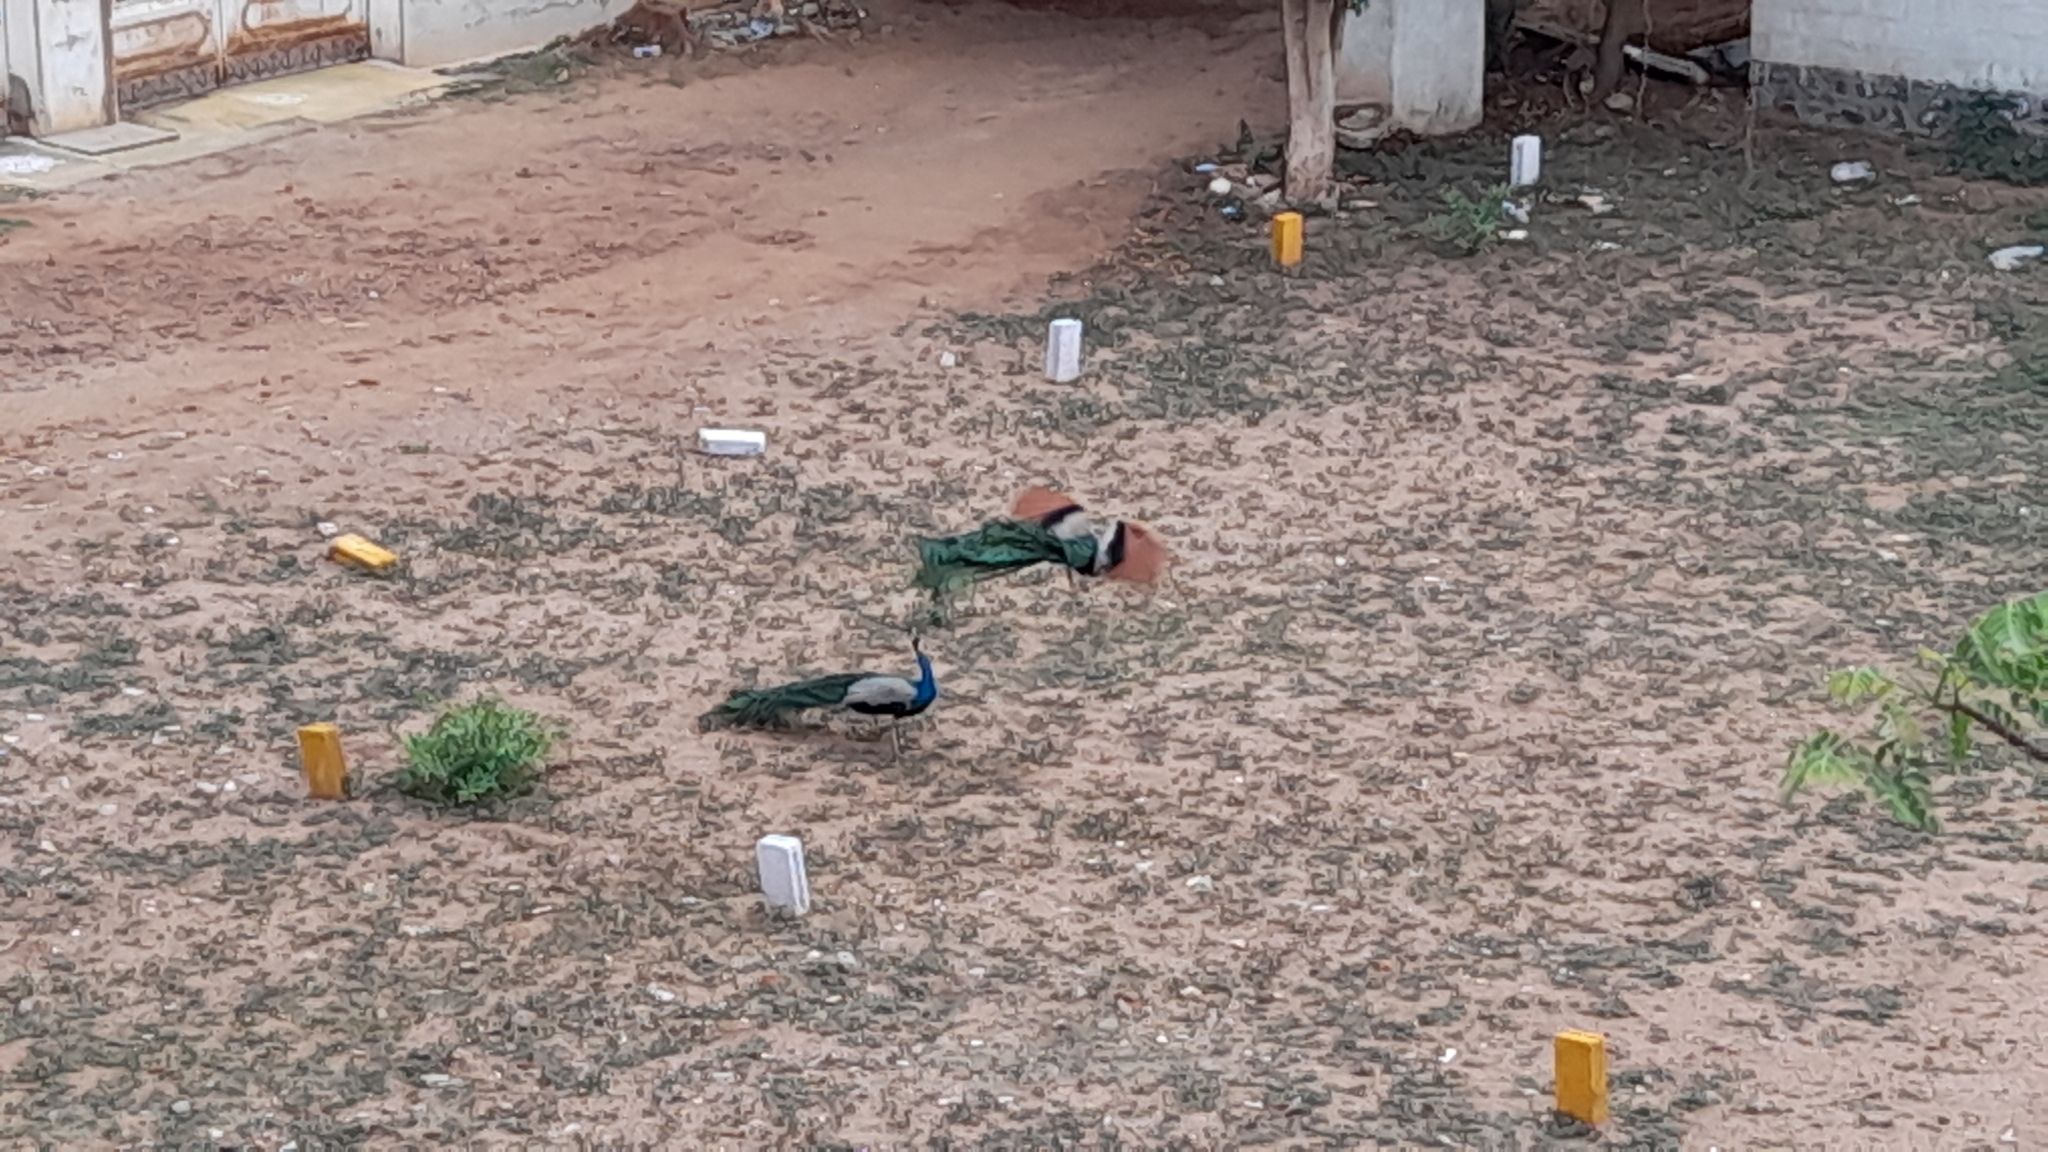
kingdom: Animalia
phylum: Chordata
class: Aves
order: Galliformes
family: Phasianidae
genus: Pavo
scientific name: Pavo cristatus
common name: Indian peafowl
